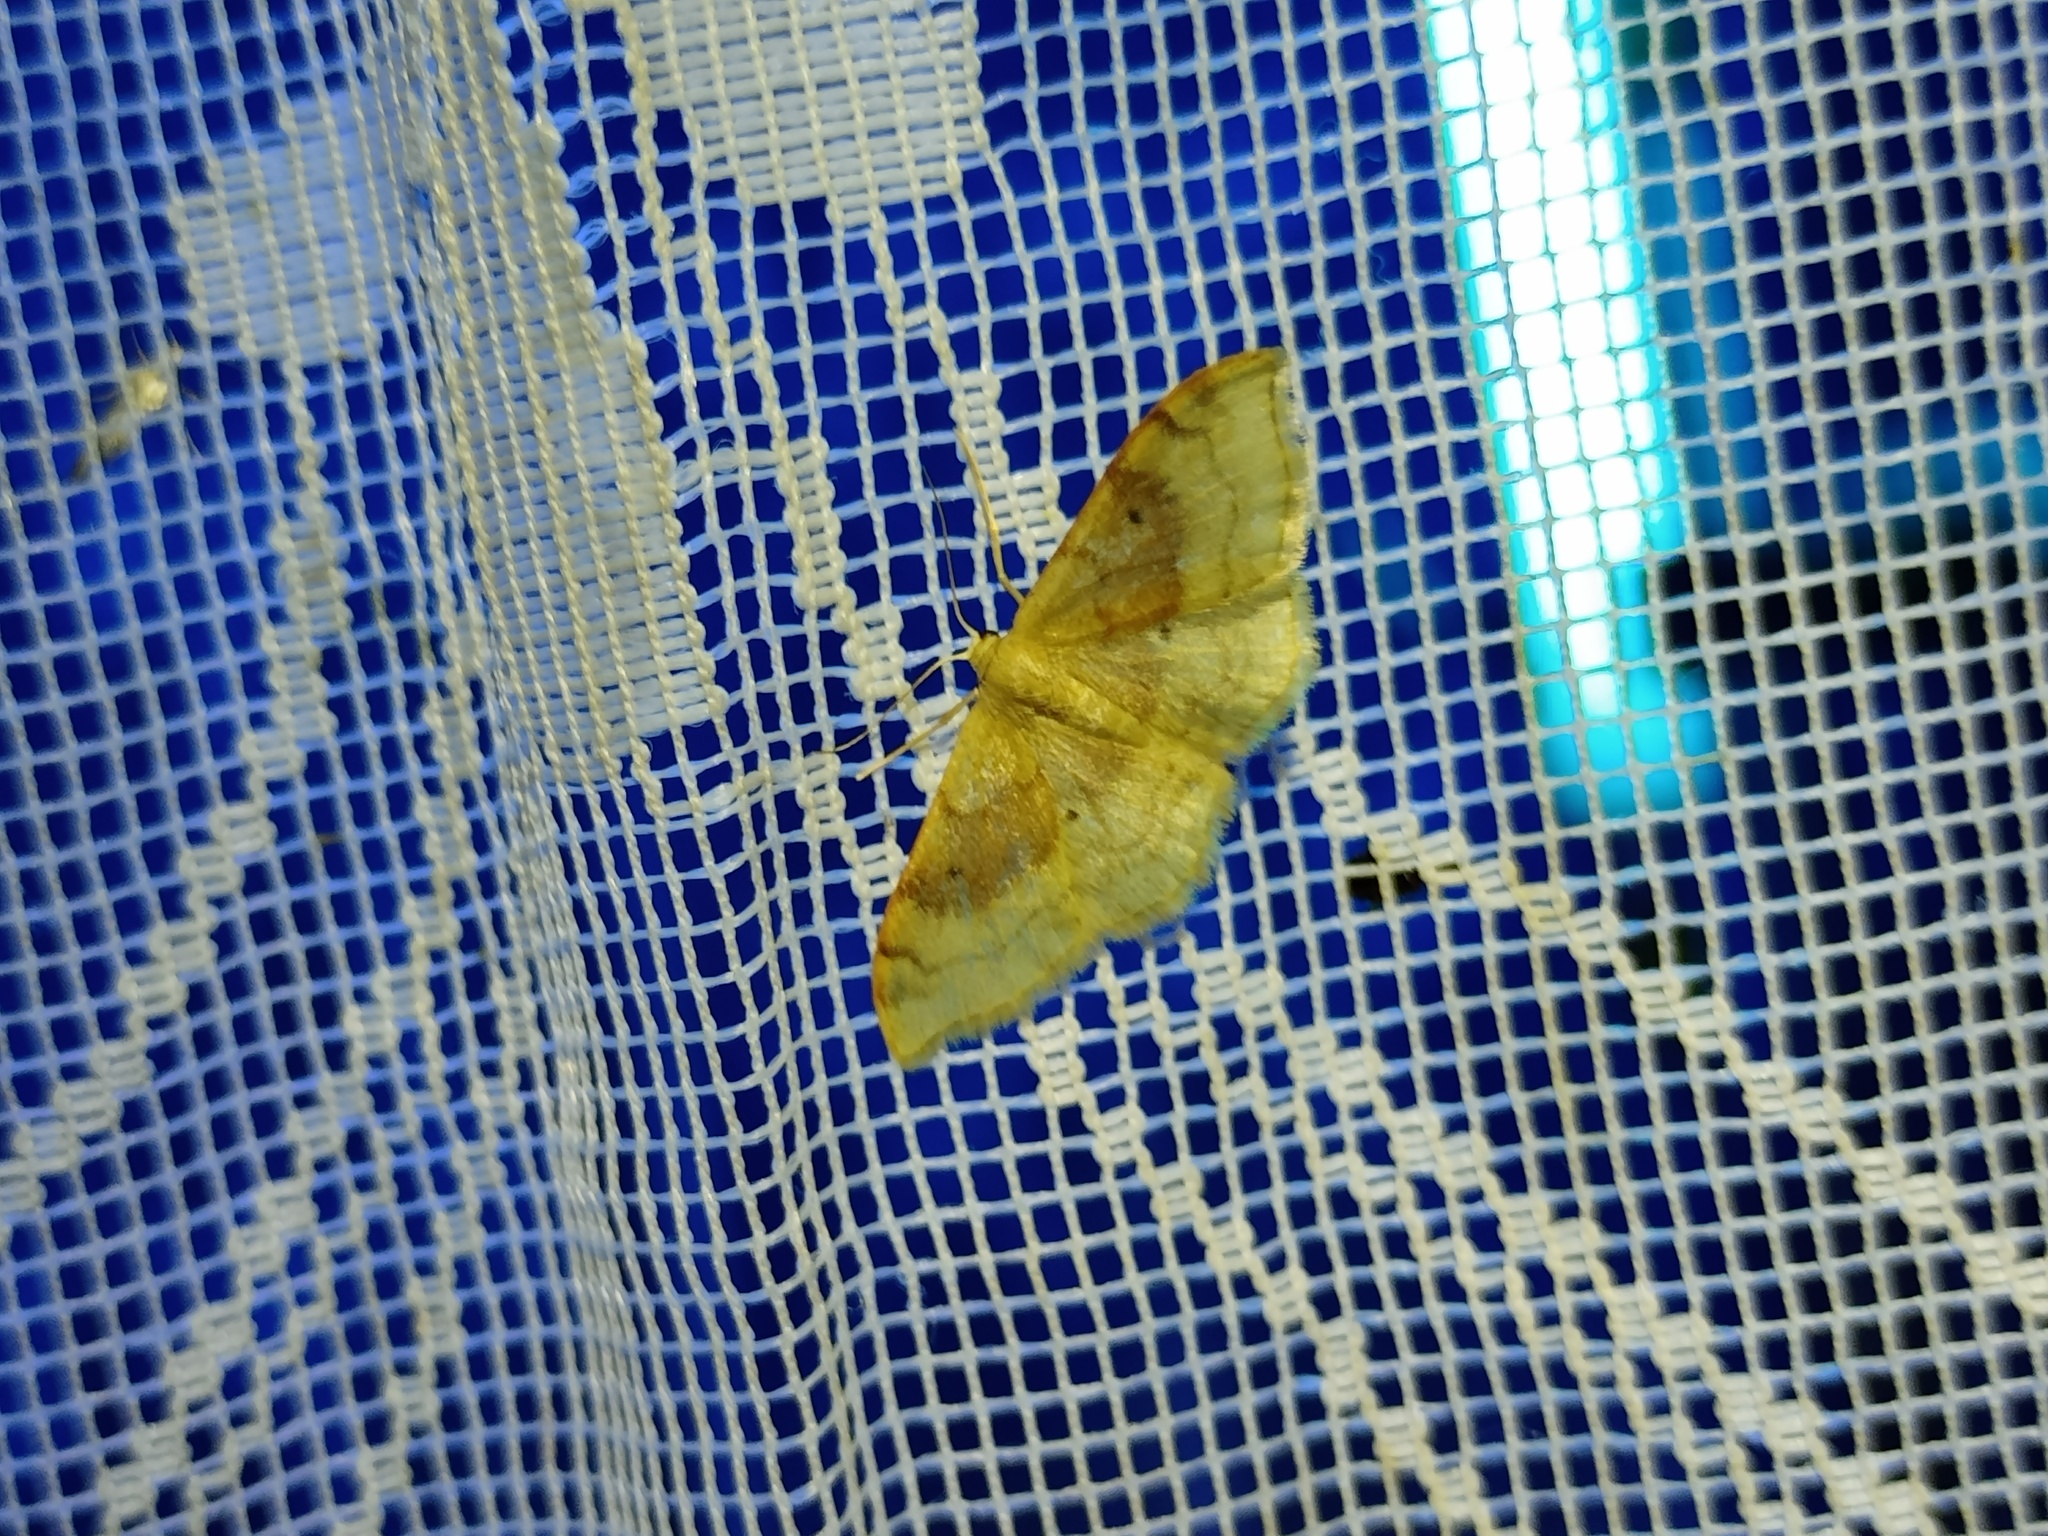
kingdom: Animalia
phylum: Arthropoda
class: Insecta
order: Lepidoptera
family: Geometridae
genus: Idaea
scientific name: Idaea degeneraria
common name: Portland ribbon wave
